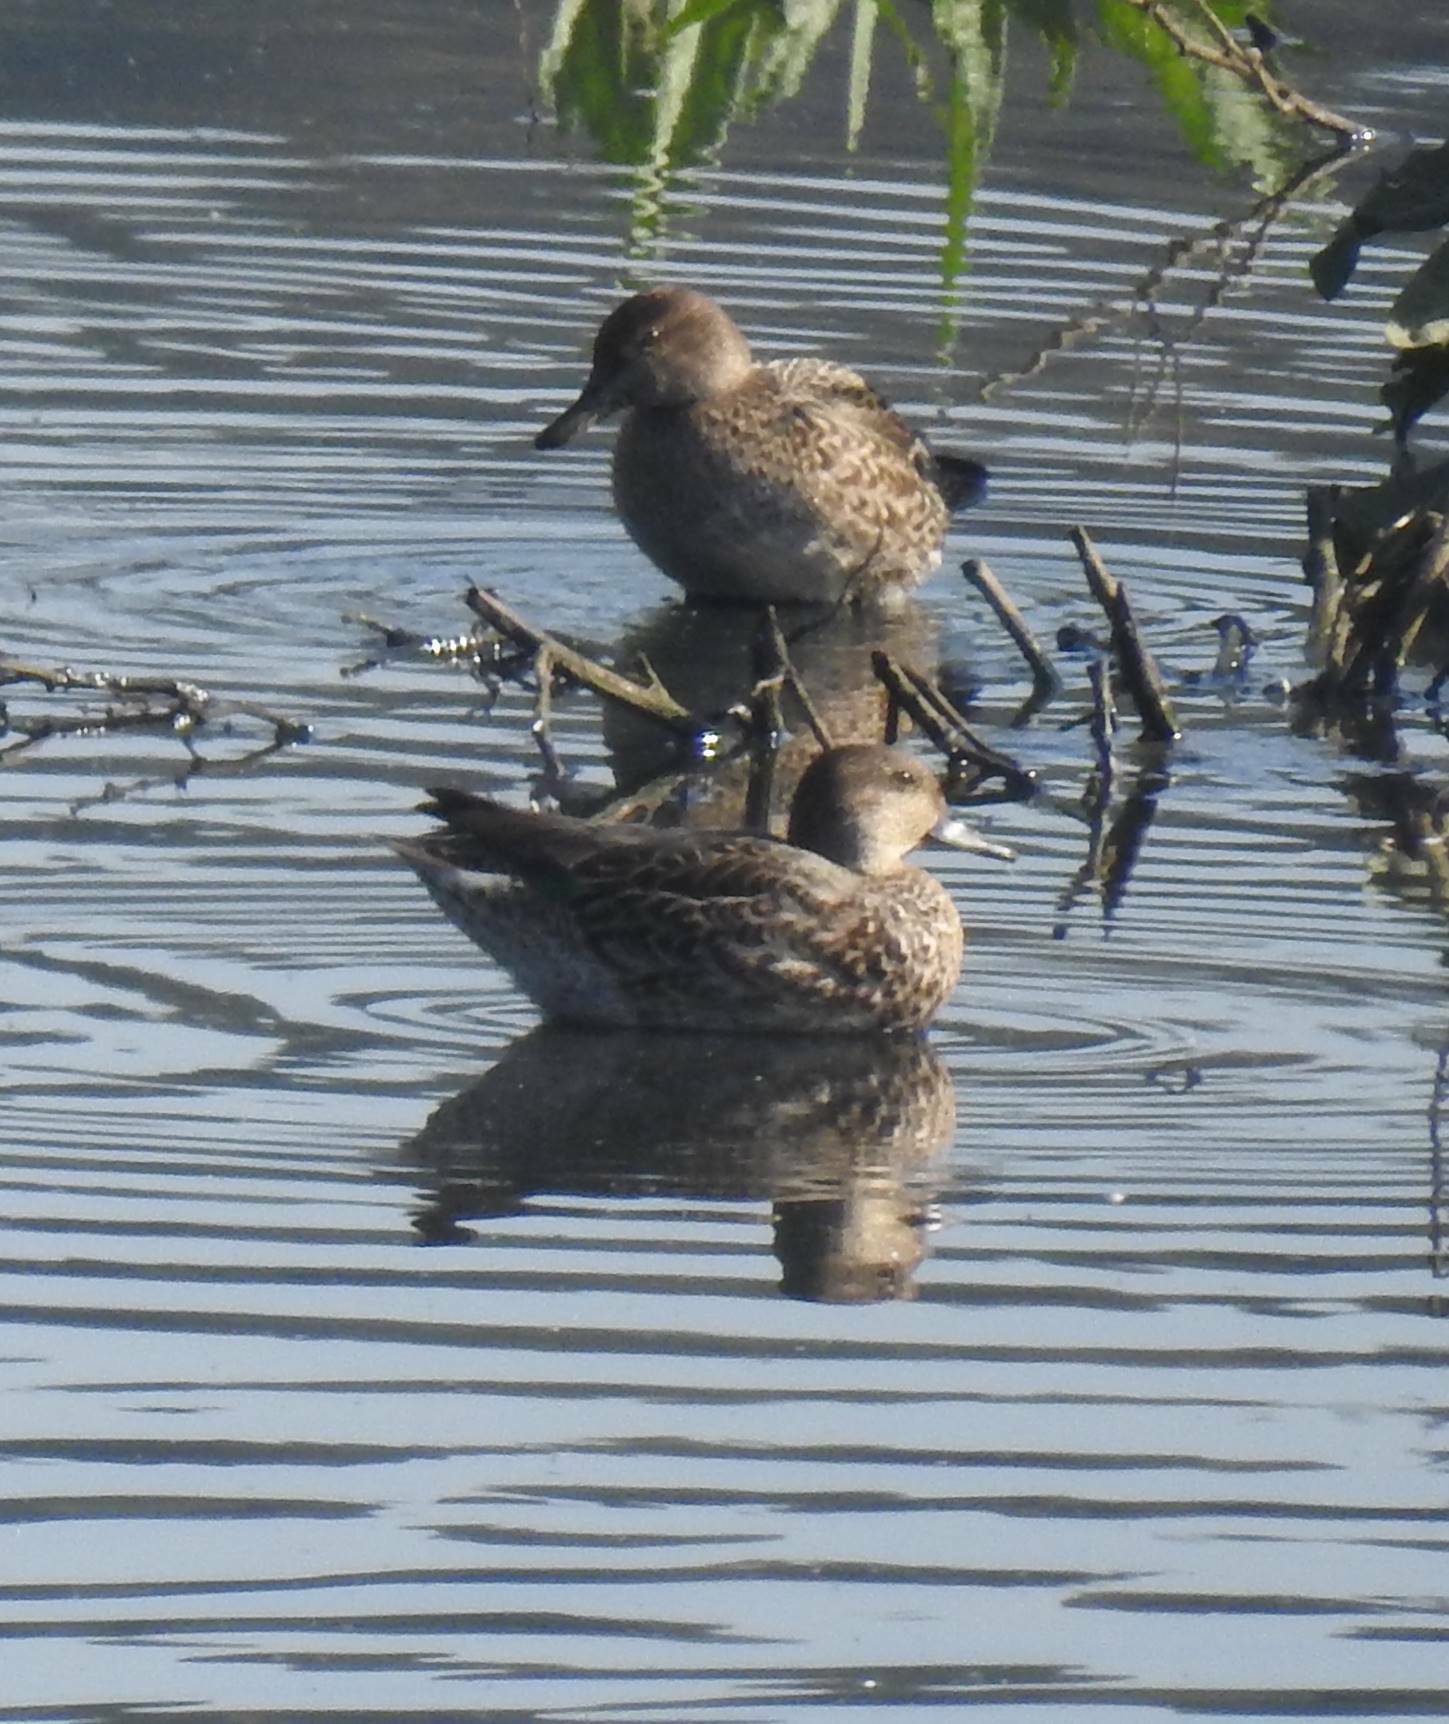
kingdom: Animalia
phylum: Chordata
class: Aves
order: Anseriformes
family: Anatidae
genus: Anas
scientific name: Anas crecca
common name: Eurasian teal
